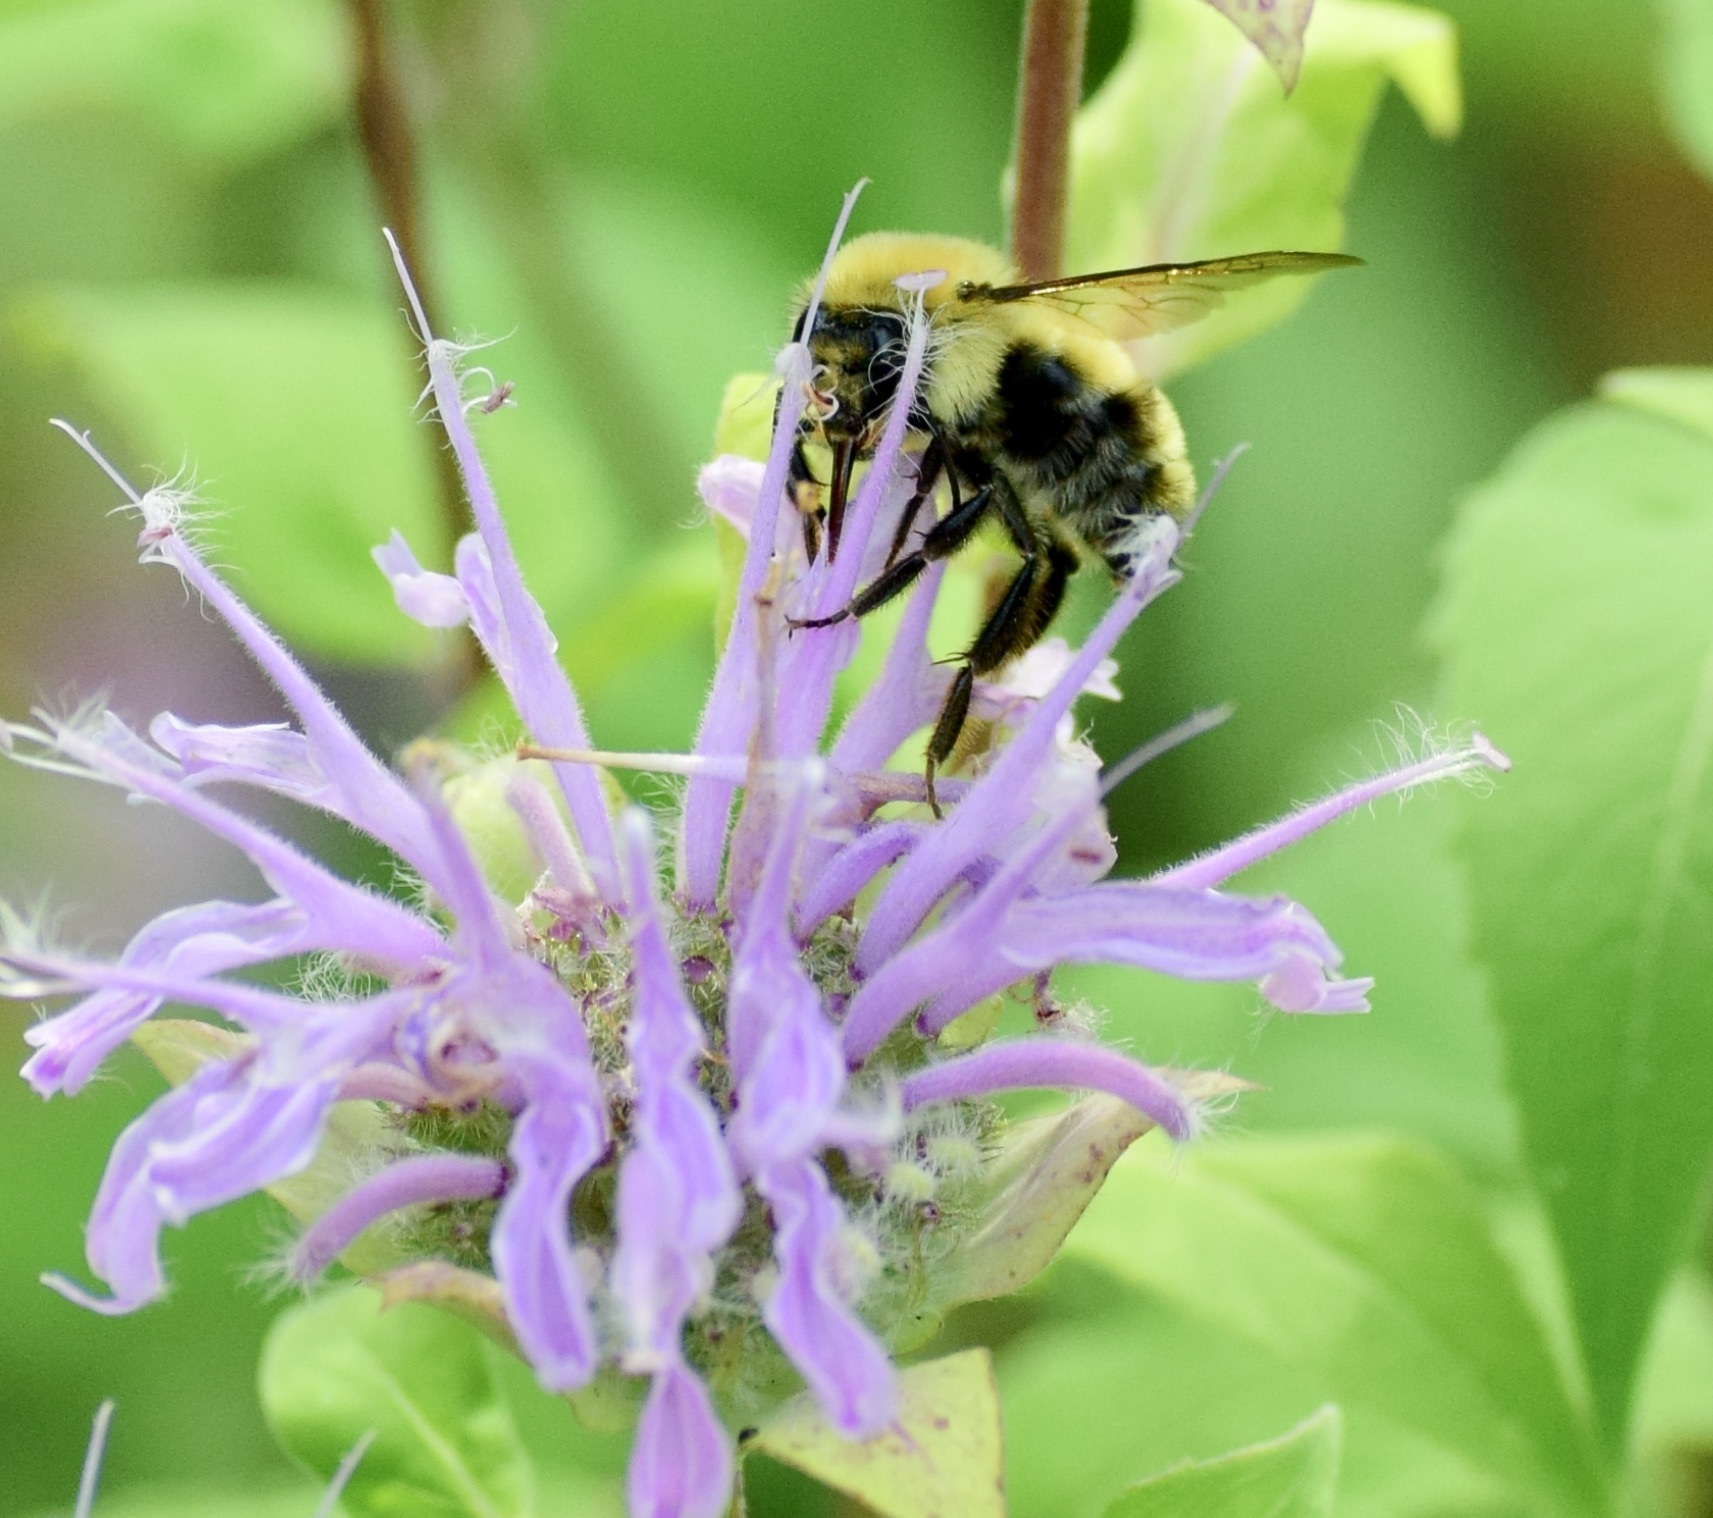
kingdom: Animalia
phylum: Arthropoda
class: Insecta
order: Hymenoptera
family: Apidae
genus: Pyrobombus
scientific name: Pyrobombus
